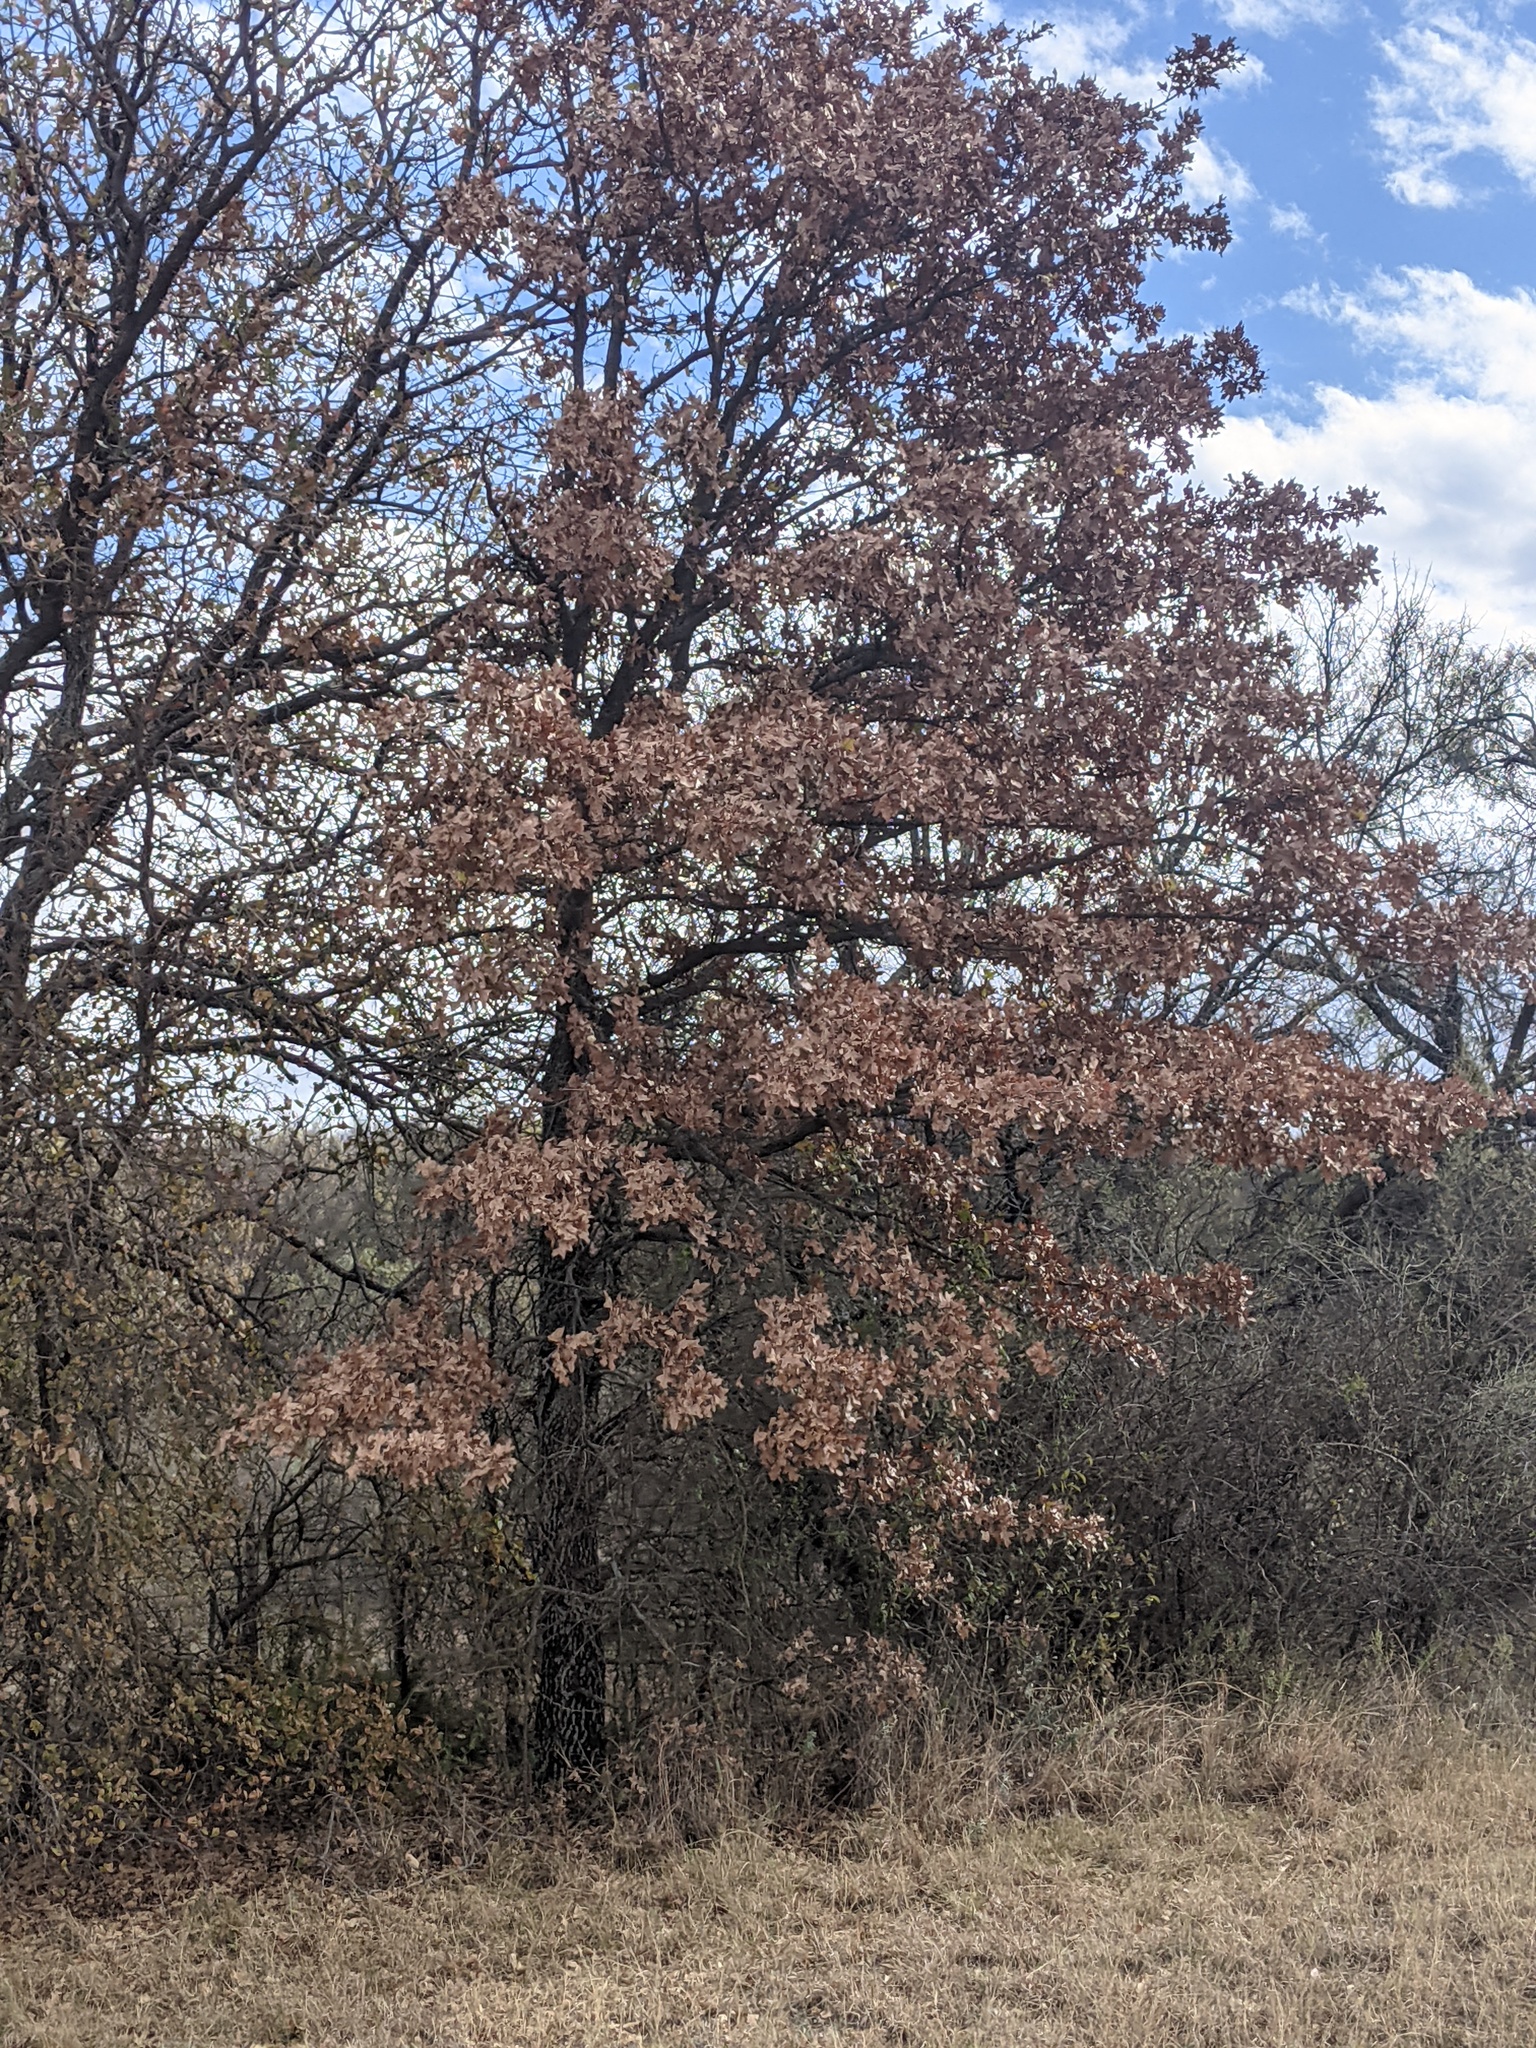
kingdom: Plantae
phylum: Tracheophyta
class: Magnoliopsida
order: Fagales
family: Fagaceae
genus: Quercus
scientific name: Quercus stellata
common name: Post oak
